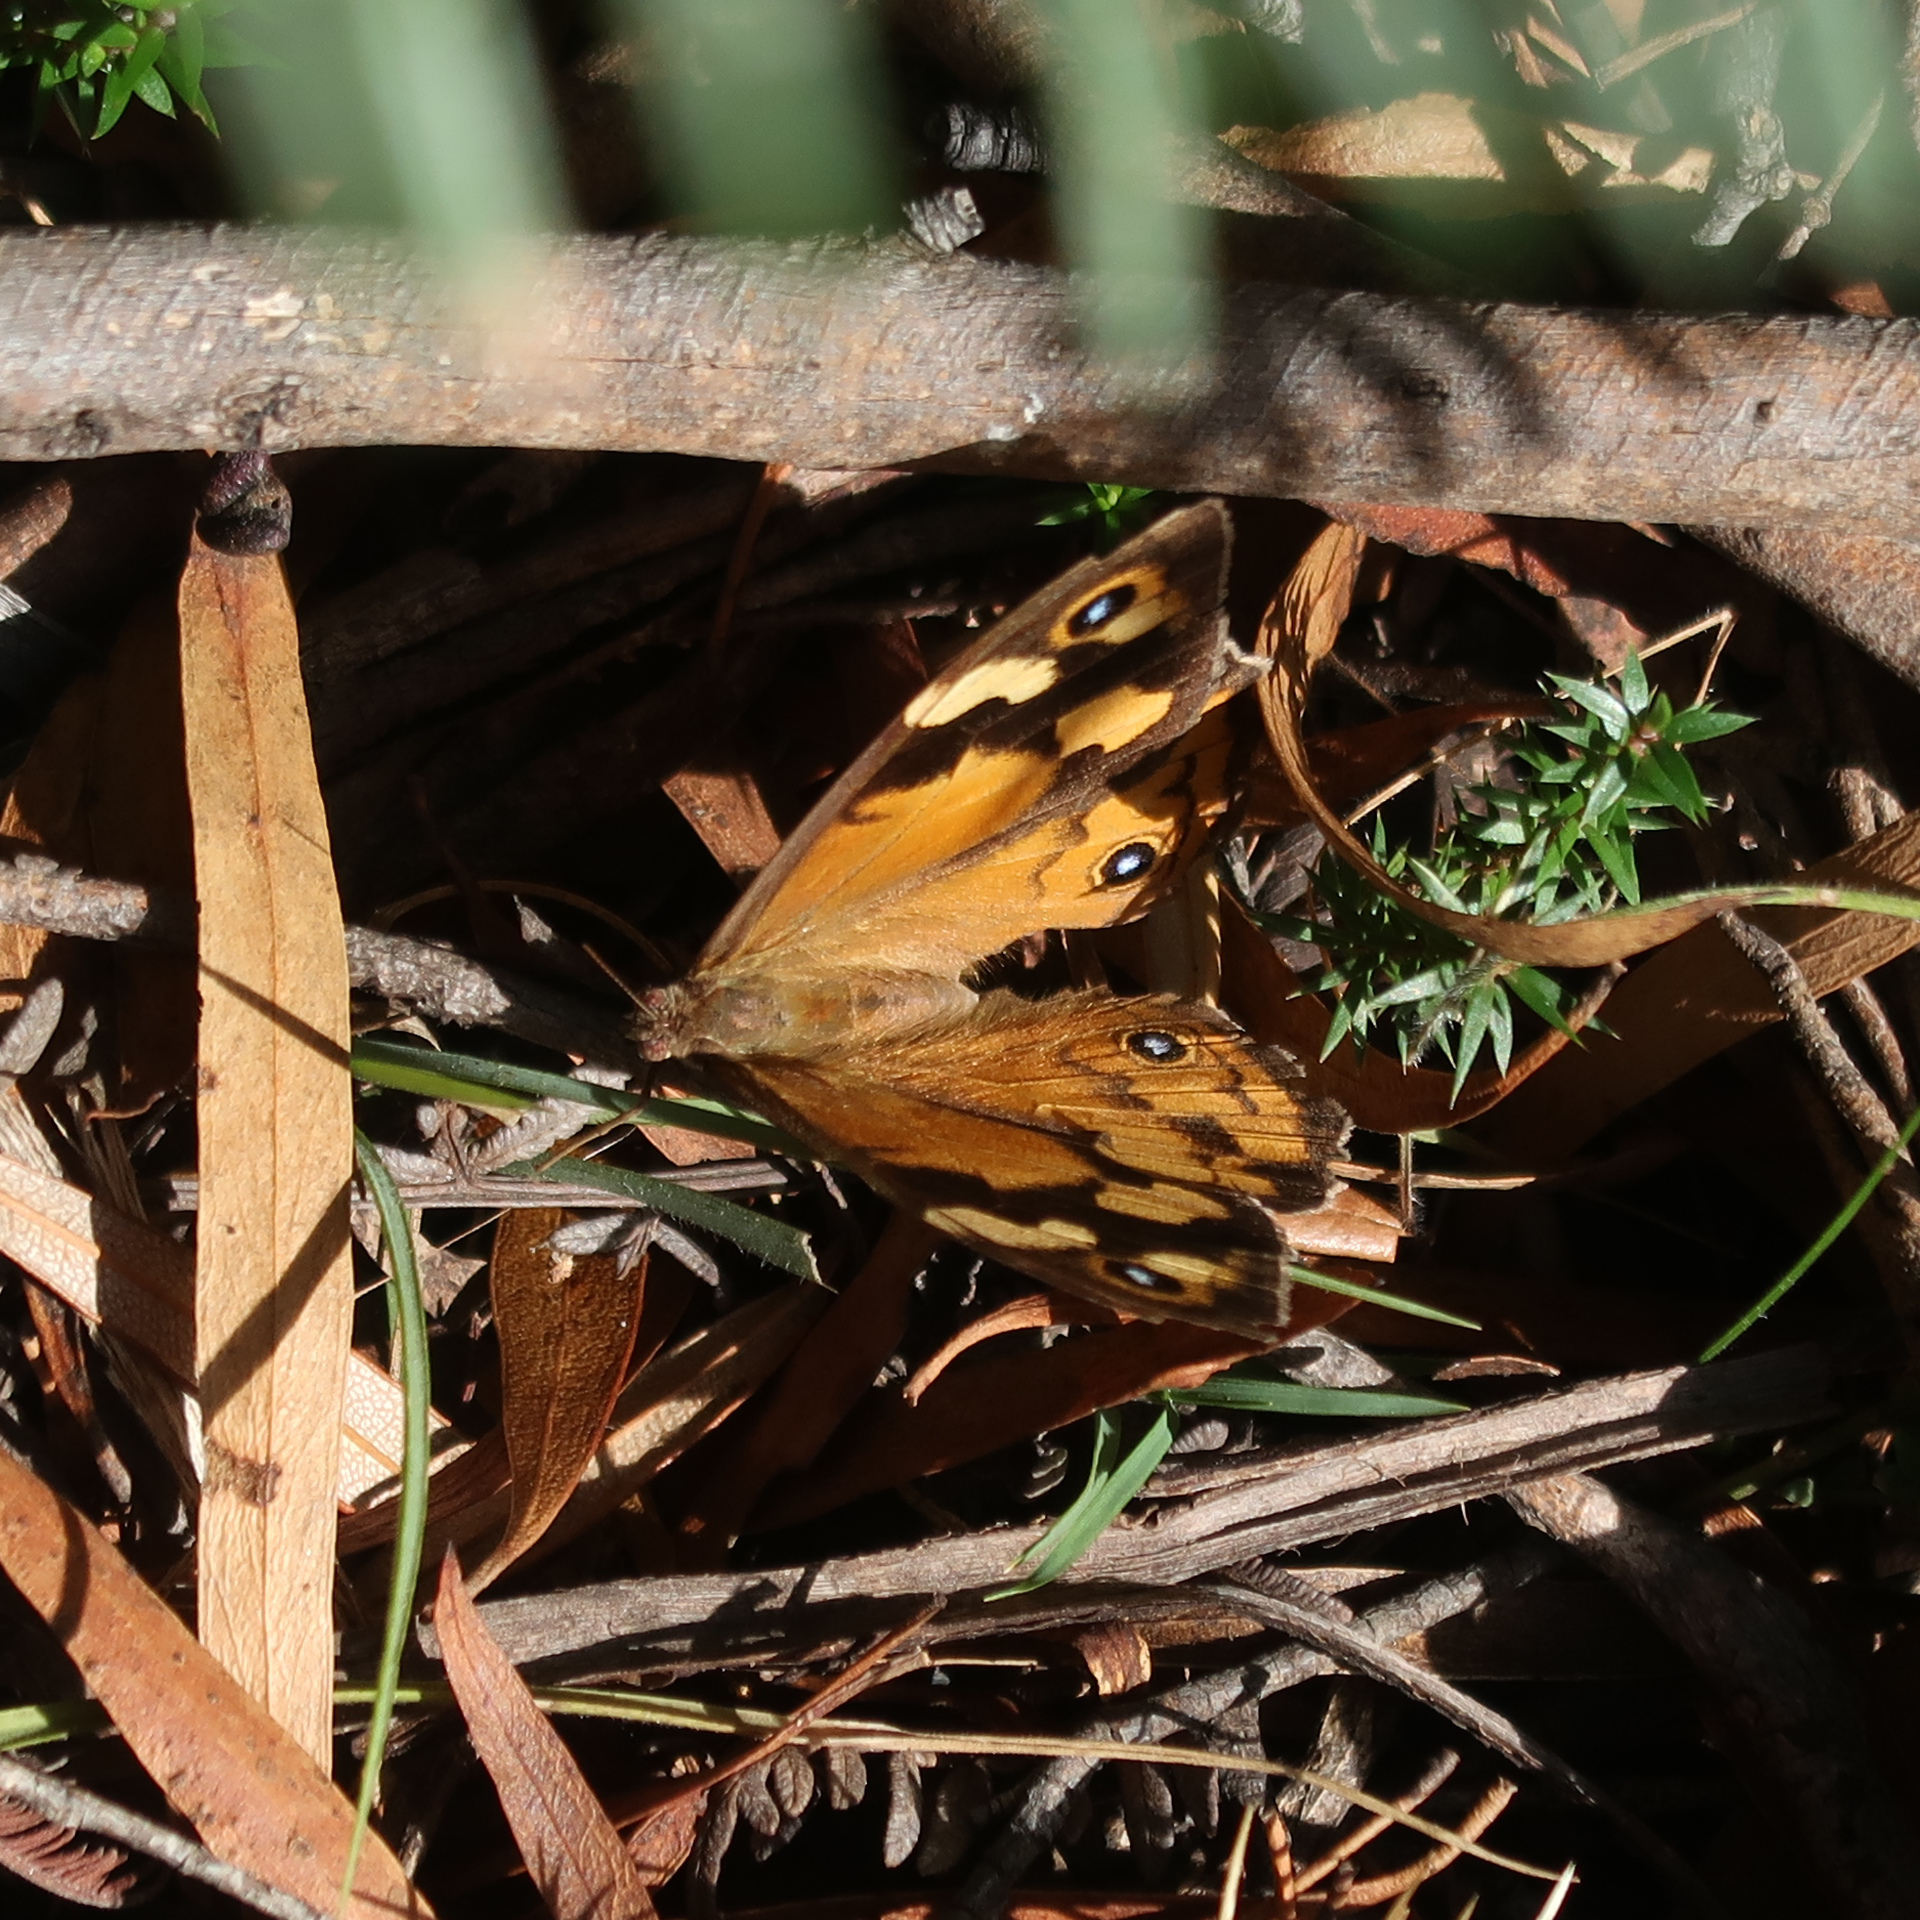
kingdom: Animalia
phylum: Arthropoda
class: Insecta
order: Lepidoptera
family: Nymphalidae
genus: Heteronympha
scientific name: Heteronympha merope
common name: Common brown
